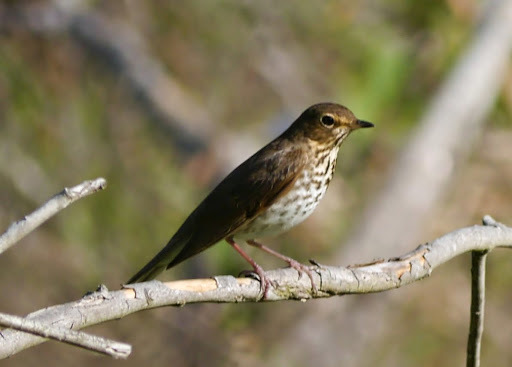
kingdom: Animalia
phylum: Chordata
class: Aves
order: Passeriformes
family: Turdidae
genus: Catharus
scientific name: Catharus ustulatus
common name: Swainson's thrush
